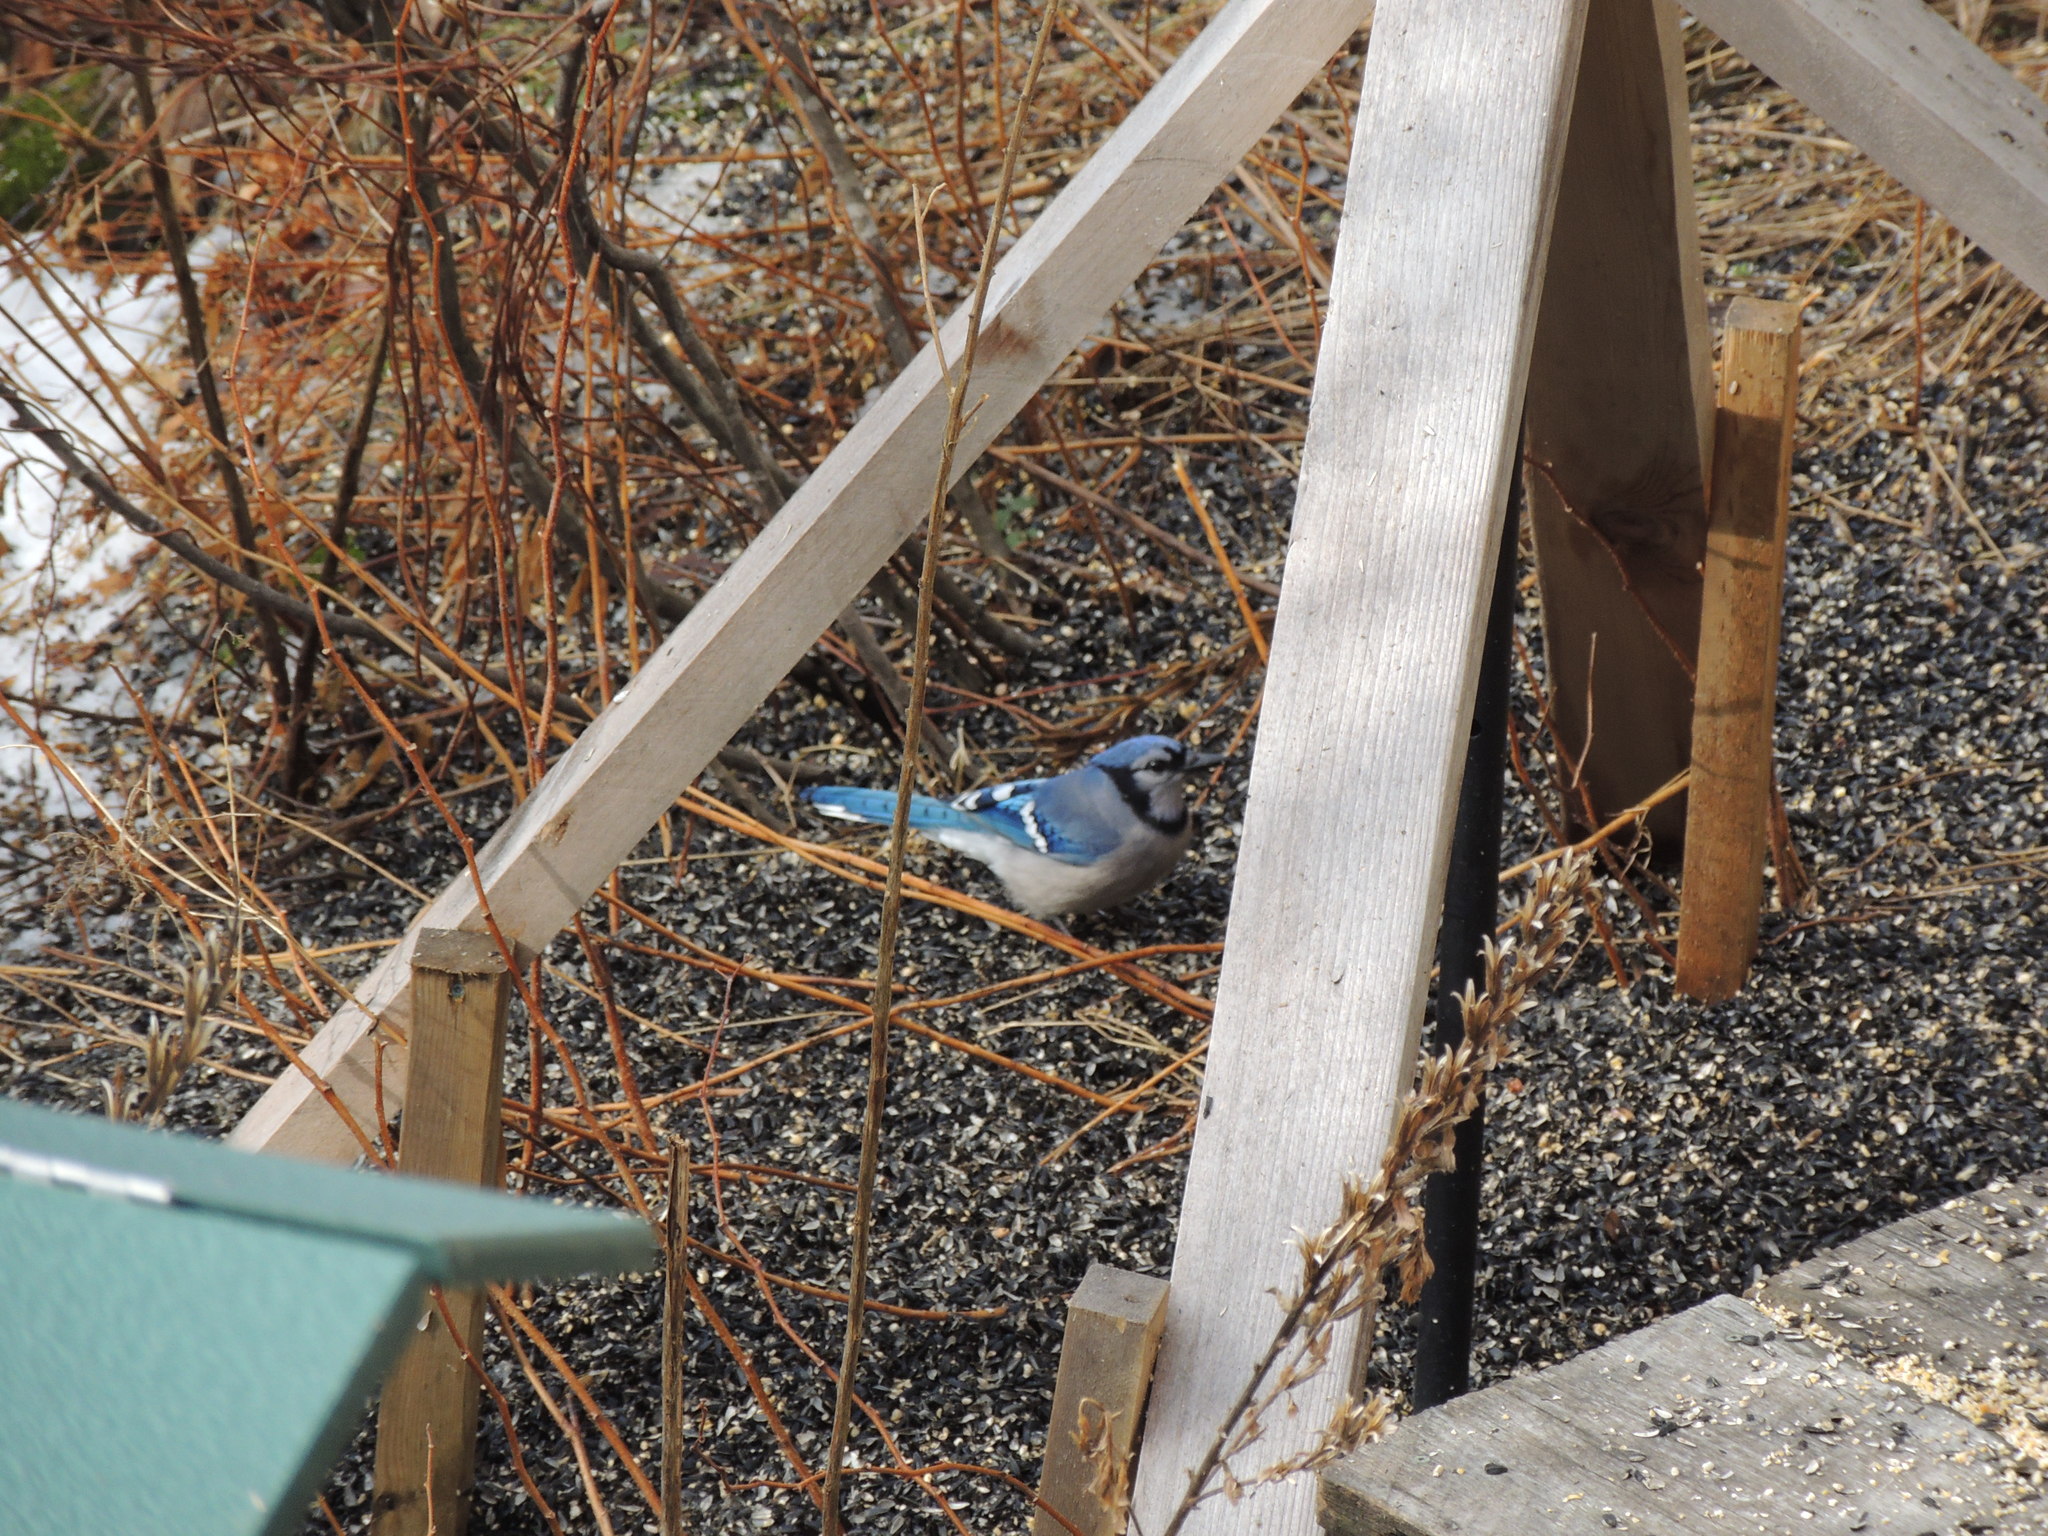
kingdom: Animalia
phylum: Chordata
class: Aves
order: Passeriformes
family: Corvidae
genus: Cyanocitta
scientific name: Cyanocitta cristata
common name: Blue jay
